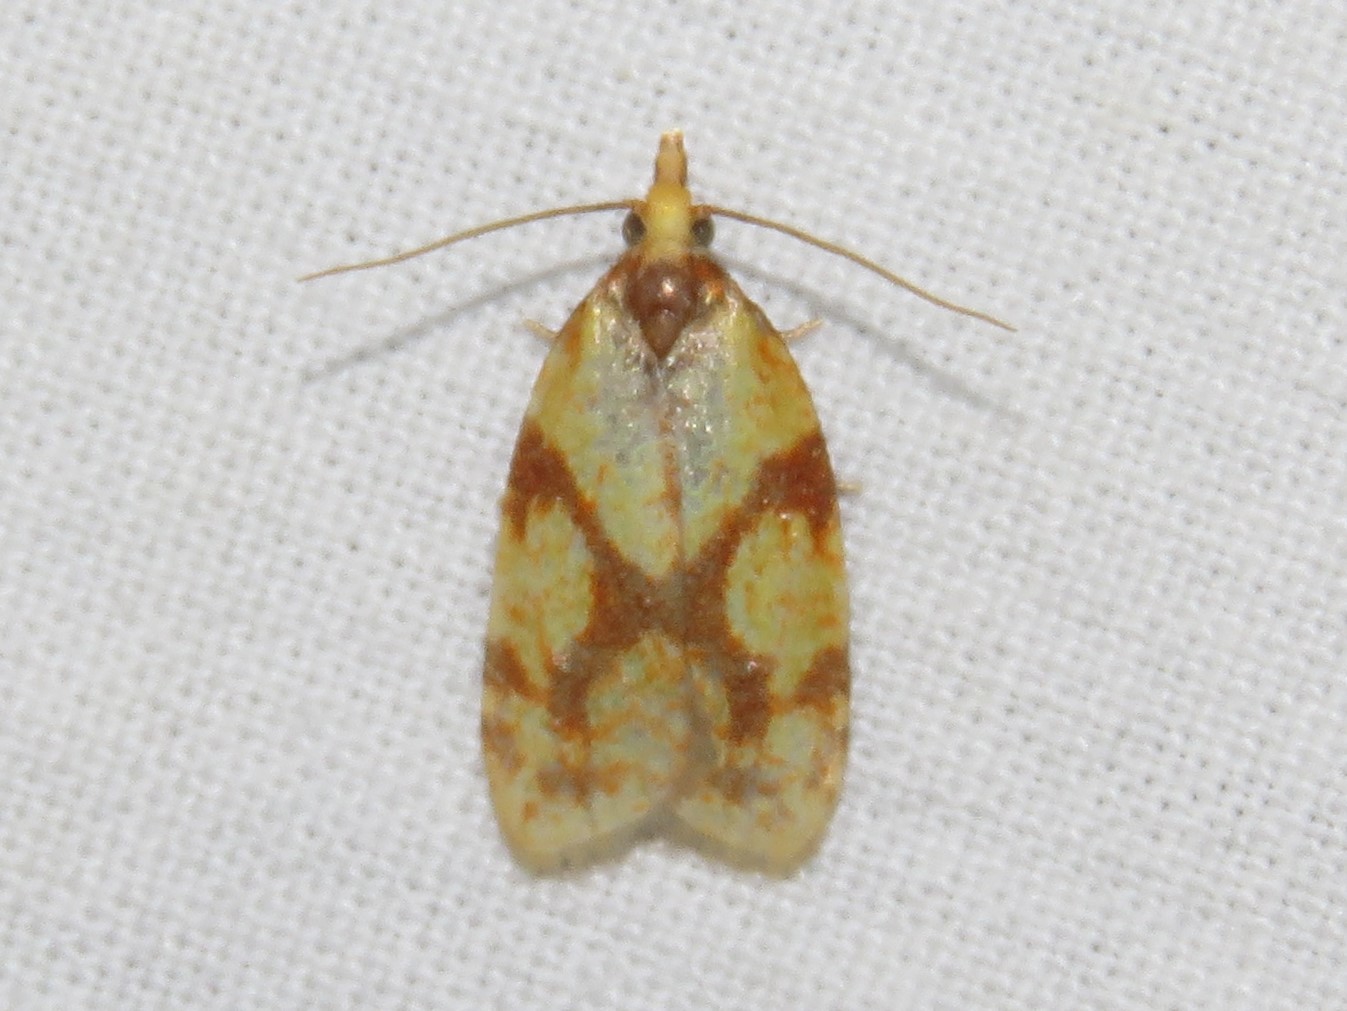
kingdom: Animalia
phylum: Arthropoda
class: Insecta
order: Lepidoptera
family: Tortricidae
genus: Sparganothis
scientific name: Sparganothis sulfureana
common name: Sparganothis fruitworm moth
